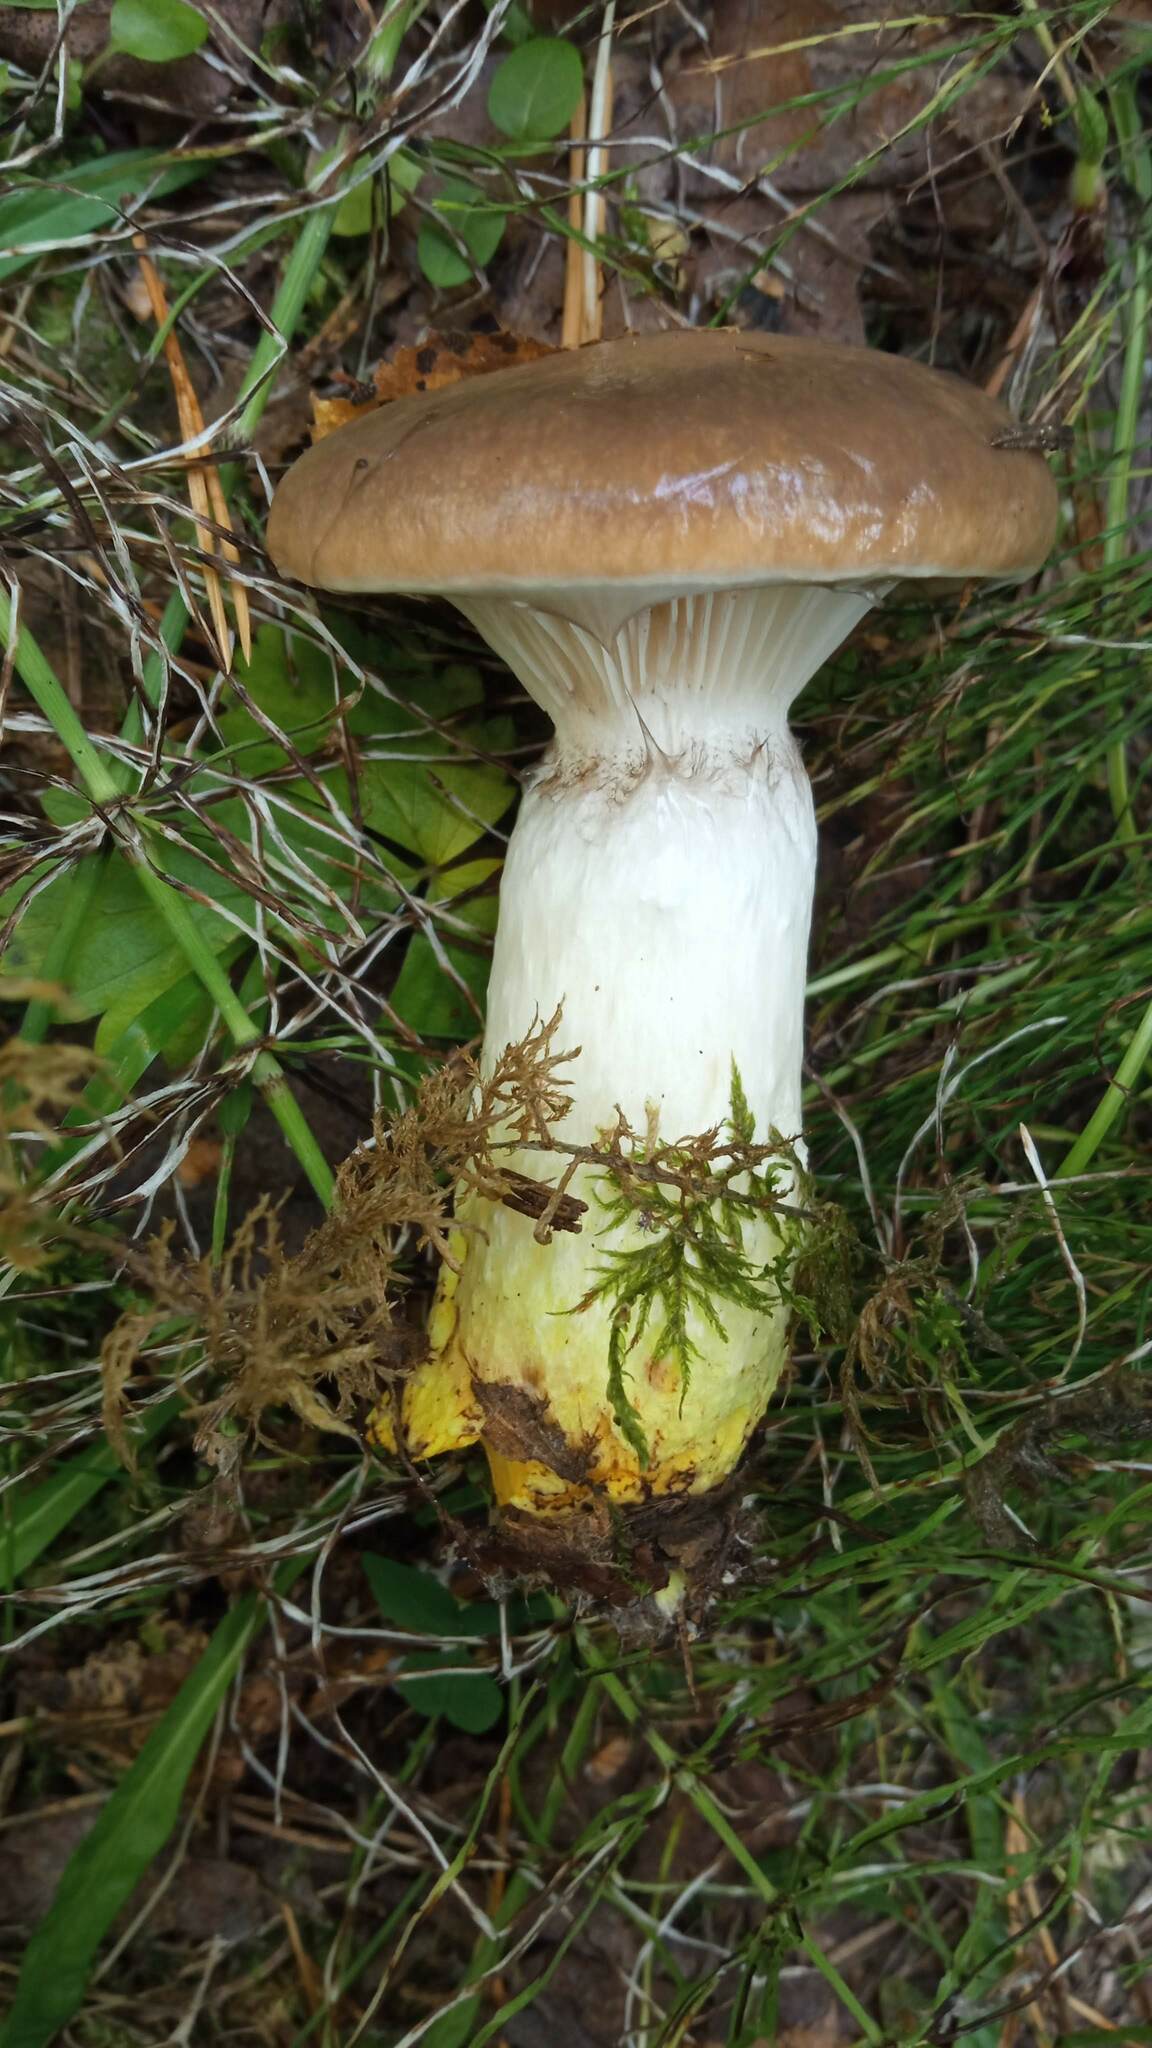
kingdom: Fungi
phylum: Basidiomycota
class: Agaricomycetes
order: Boletales
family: Gomphidiaceae
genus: Gomphidius
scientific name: Gomphidius glutinosus
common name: Slimy spike
